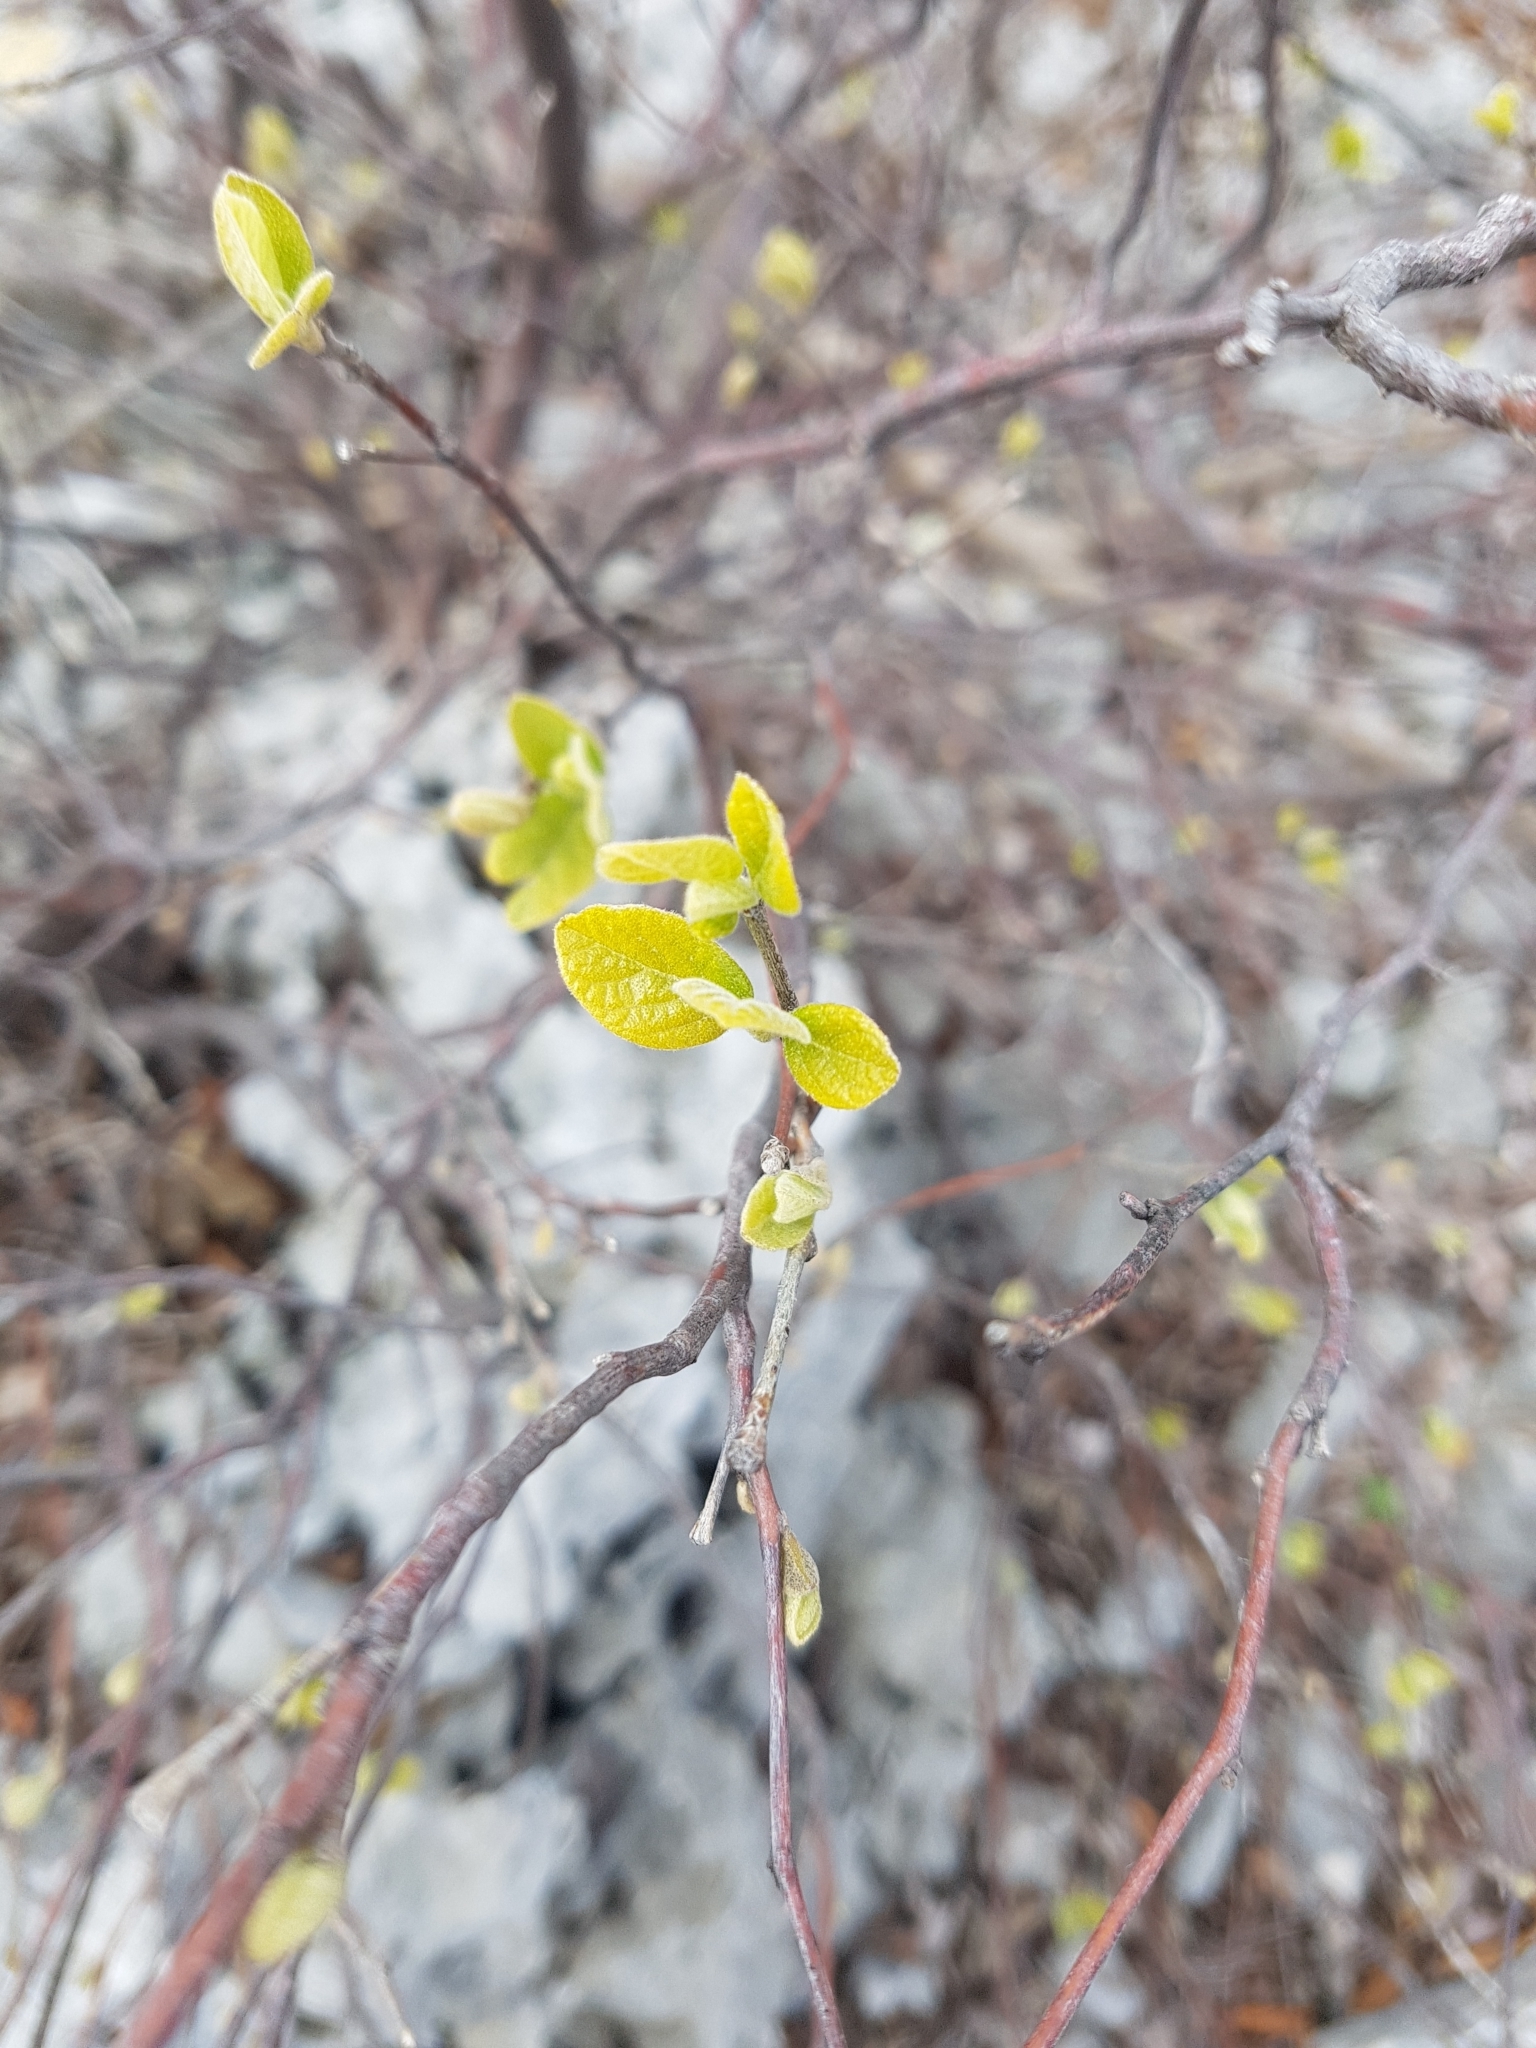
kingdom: Plantae
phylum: Tracheophyta
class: Magnoliopsida
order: Ericales
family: Styracaceae
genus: Styrax
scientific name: Styrax officinalis
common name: Storax
